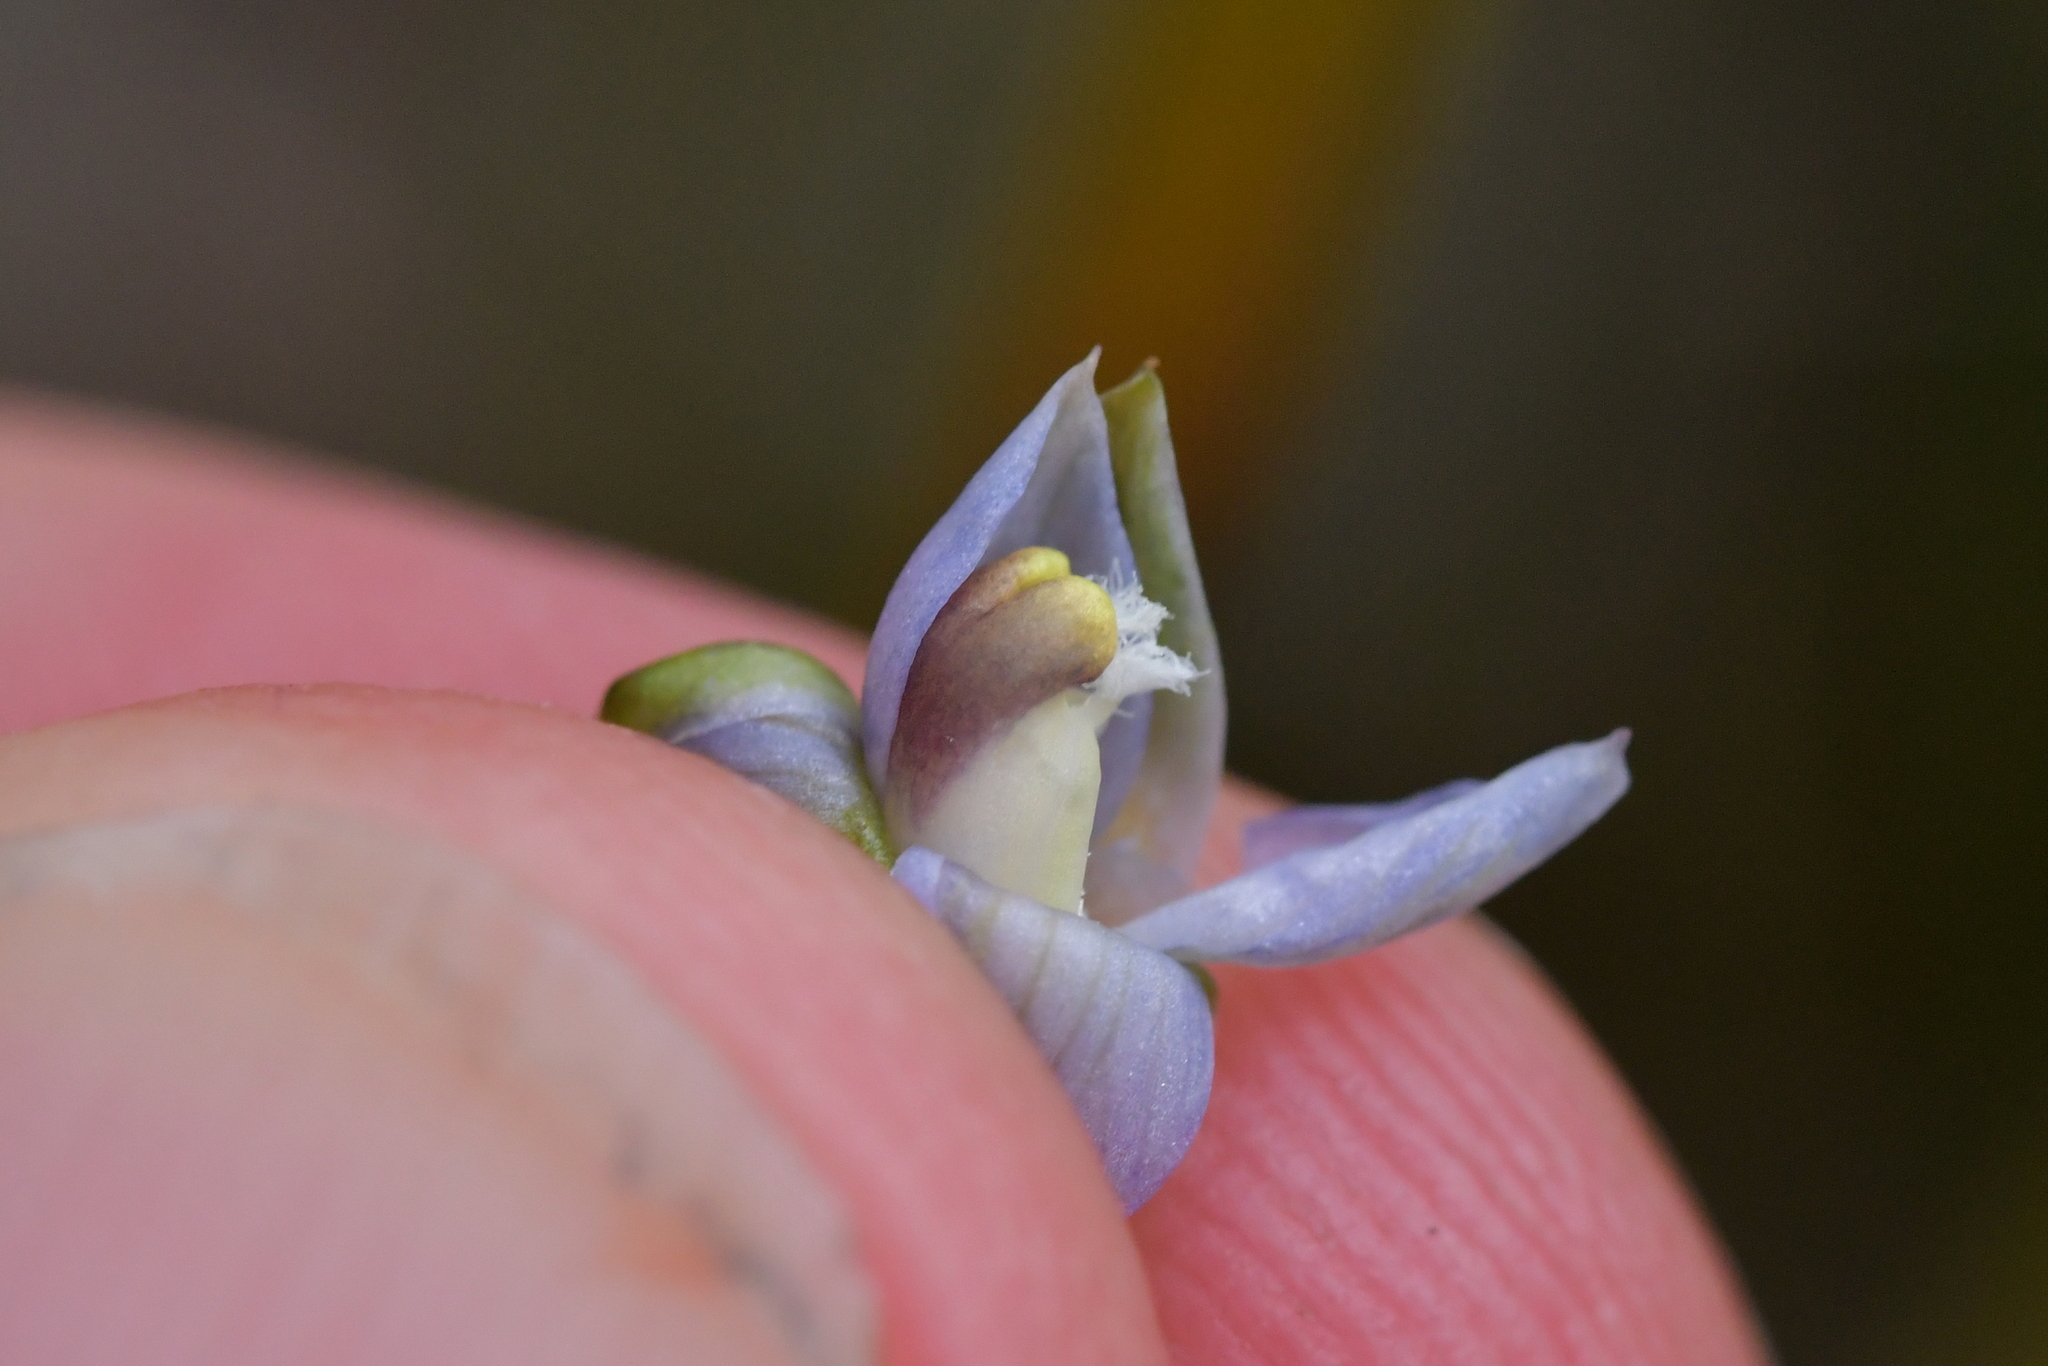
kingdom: Plantae
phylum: Tracheophyta
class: Liliopsida
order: Asparagales
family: Orchidaceae
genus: Thelymitra
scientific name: Thelymitra colensoi
